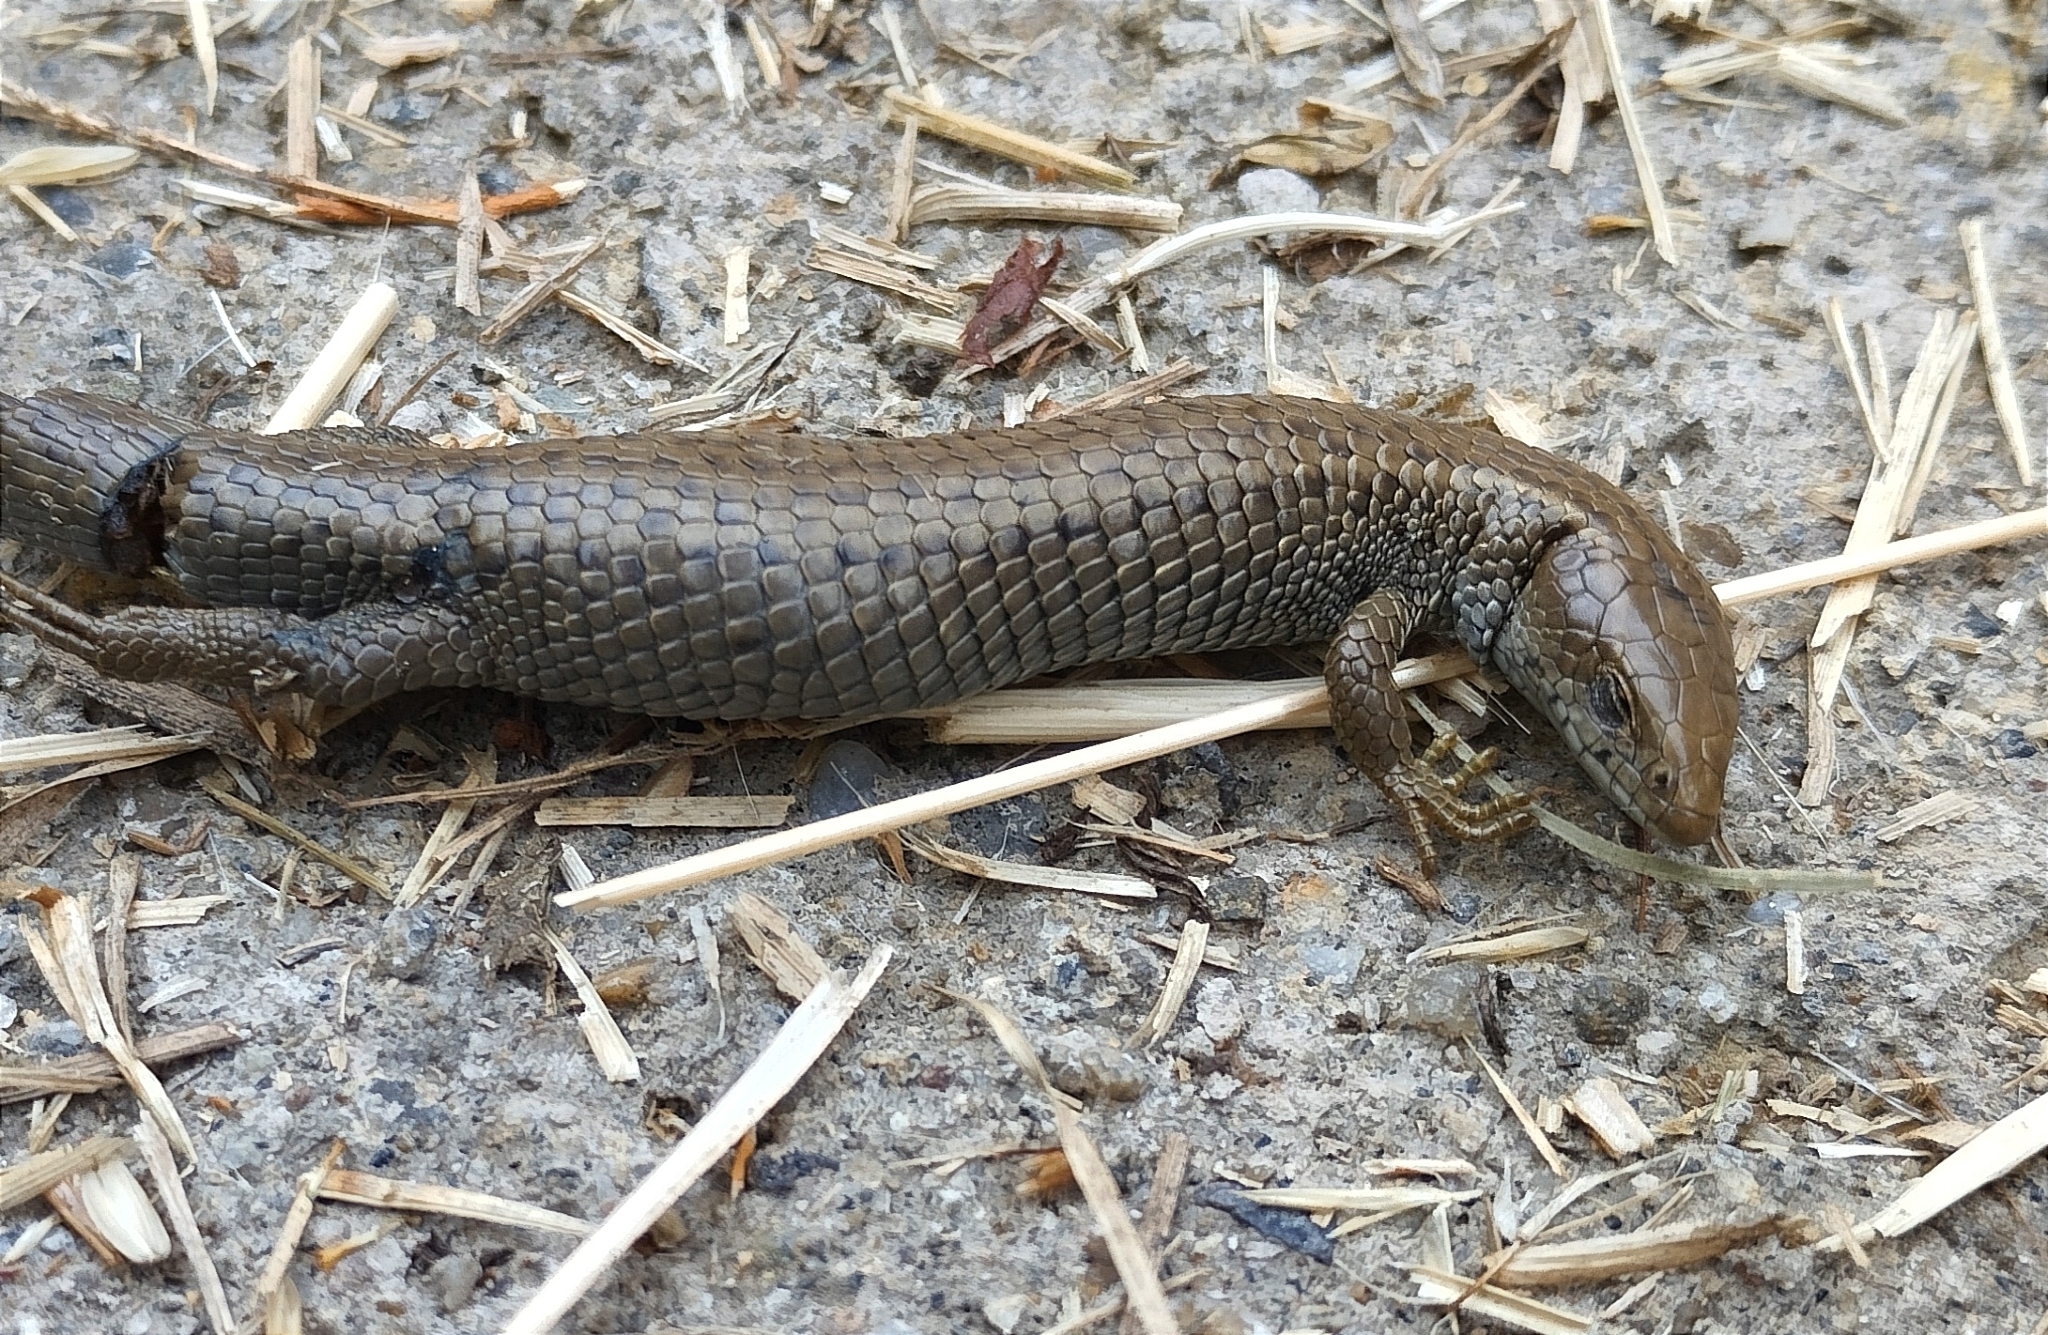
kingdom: Animalia
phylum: Chordata
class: Squamata
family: Gymnophthalmidae
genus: Anadia
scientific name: Anadia bogotensis
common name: Bogota anadia
